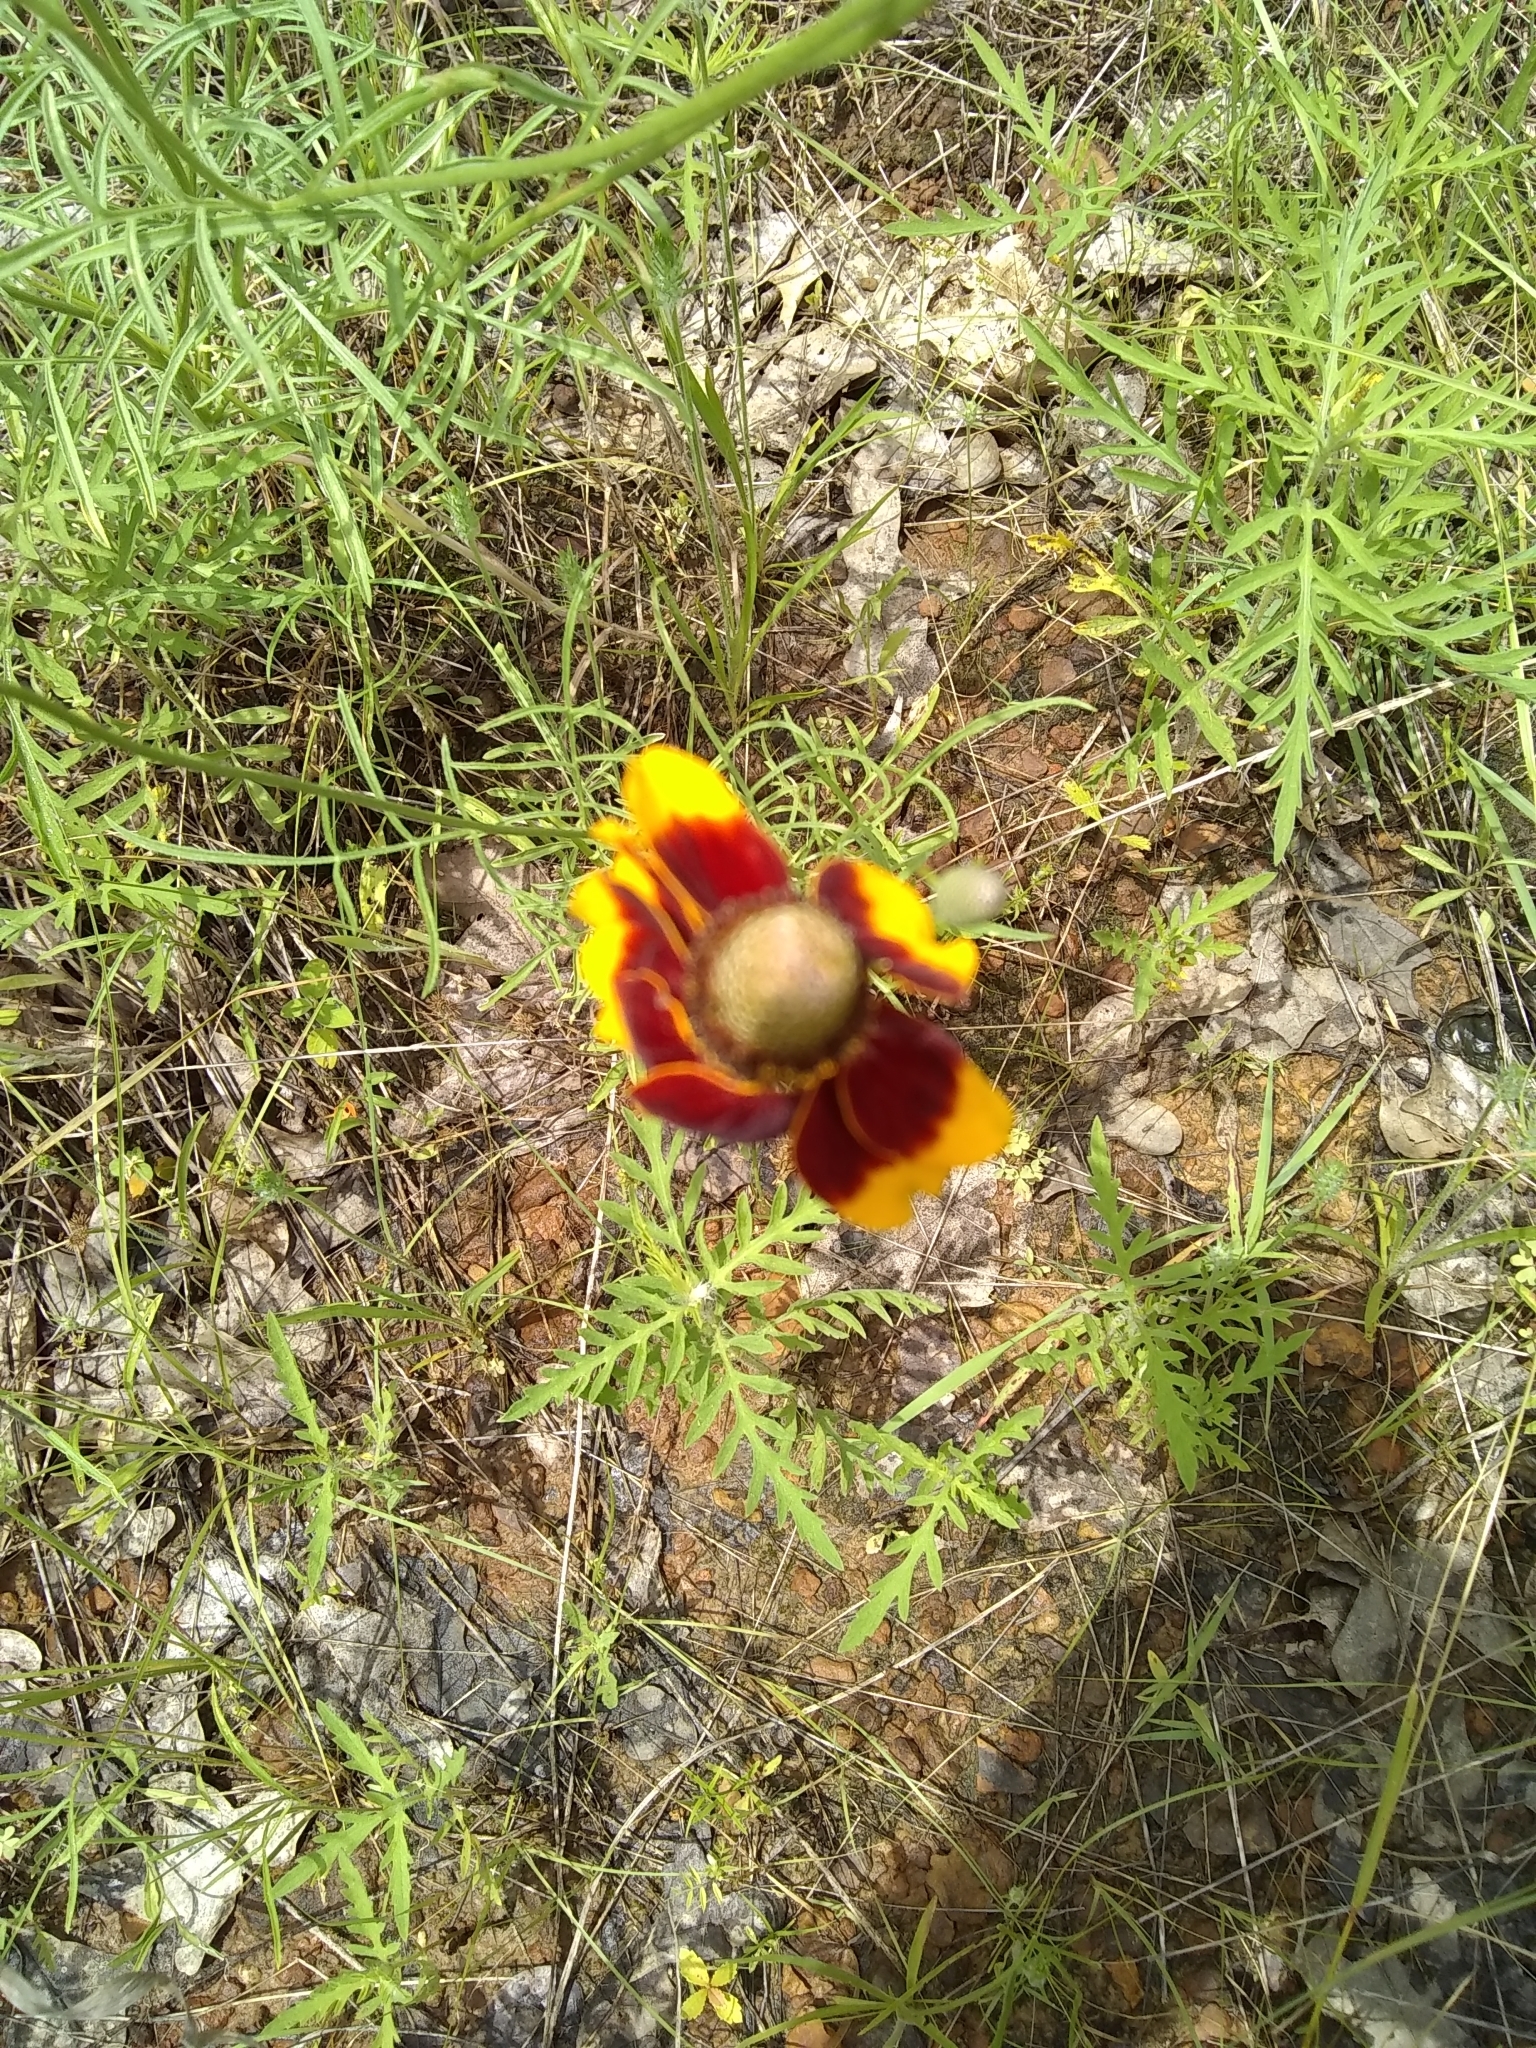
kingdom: Plantae
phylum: Tracheophyta
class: Magnoliopsida
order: Asterales
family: Asteraceae
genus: Ratibida
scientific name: Ratibida columnifera
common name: Prairie coneflower
